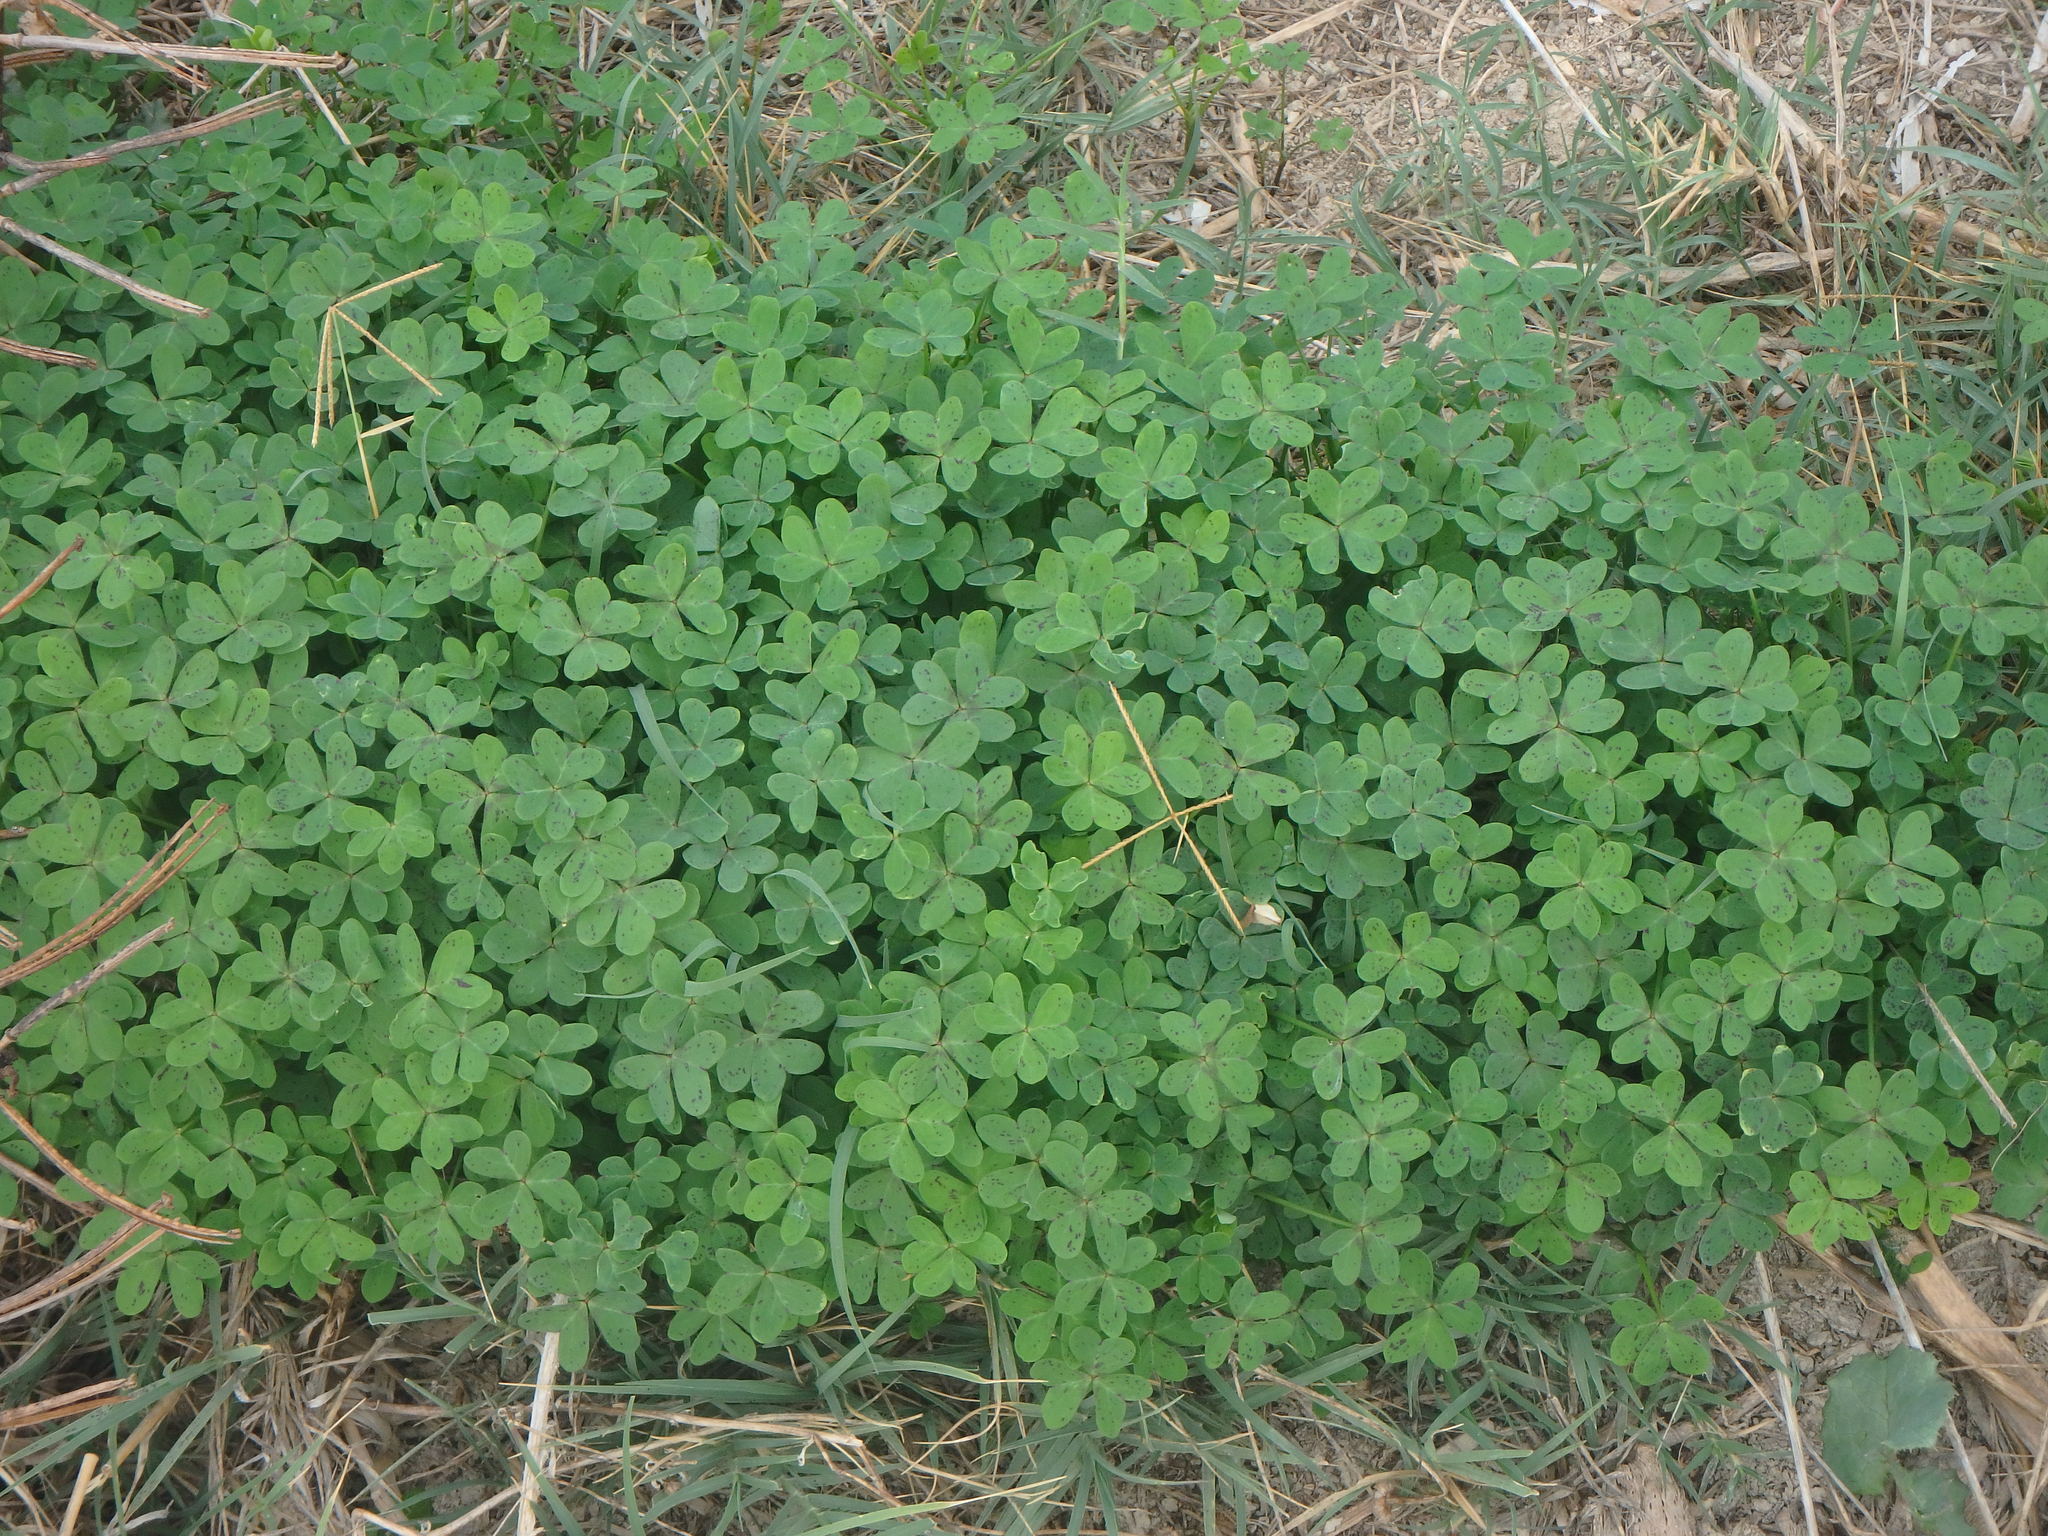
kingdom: Plantae
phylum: Tracheophyta
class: Magnoliopsida
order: Oxalidales
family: Oxalidaceae
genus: Oxalis
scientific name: Oxalis pes-caprae
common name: Bermuda-buttercup
